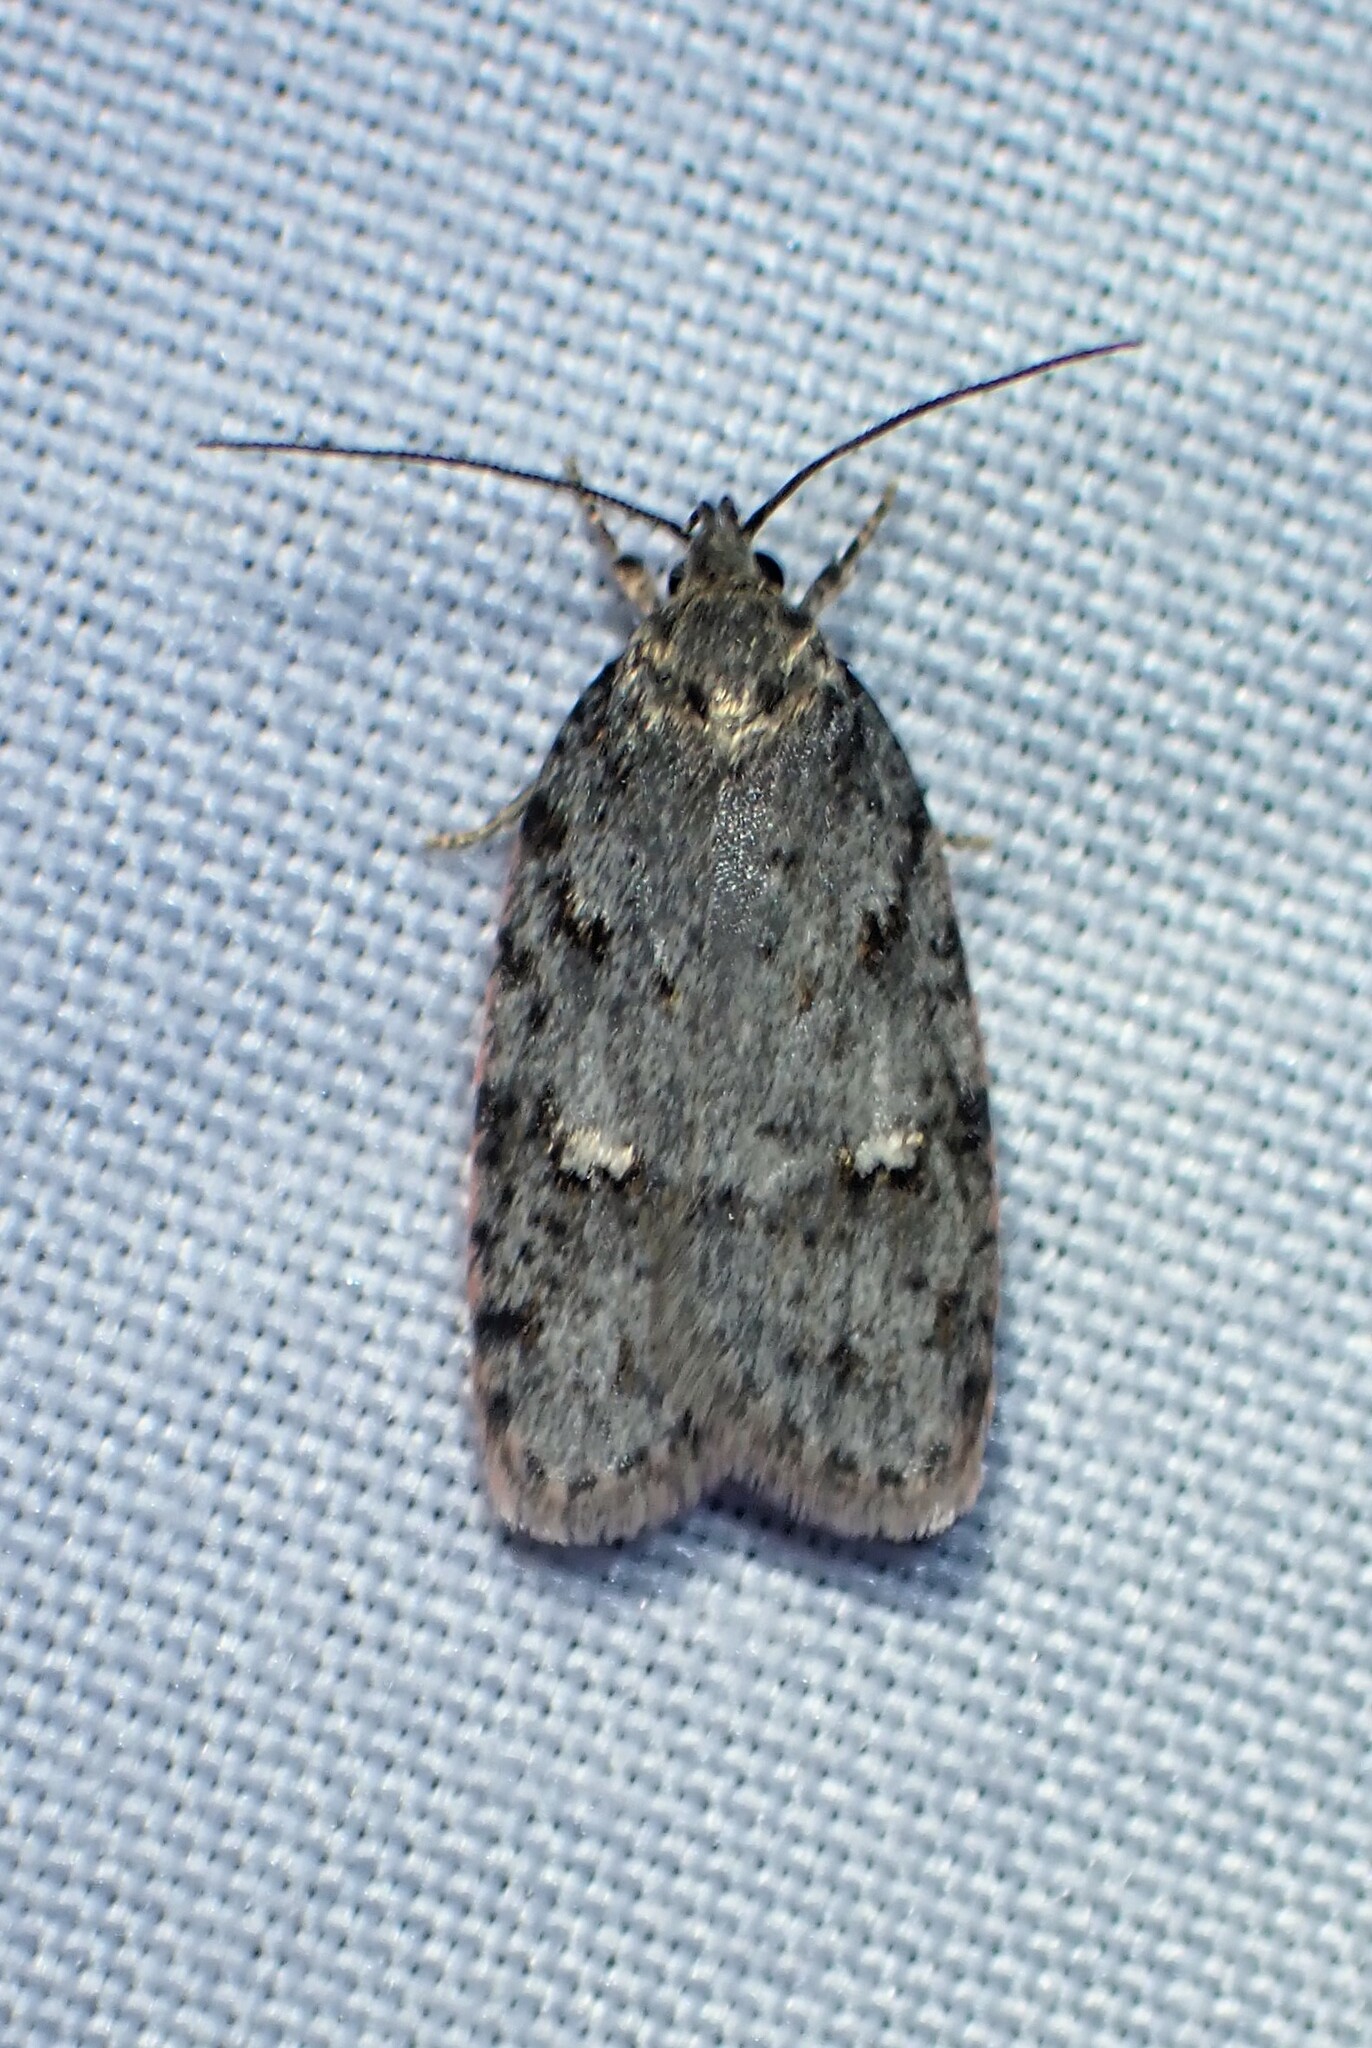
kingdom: Animalia
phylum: Arthropoda
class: Insecta
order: Lepidoptera
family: Depressariidae
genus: Bibarrambla
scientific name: Bibarrambla allenella
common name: Bog bibarrambla moth
